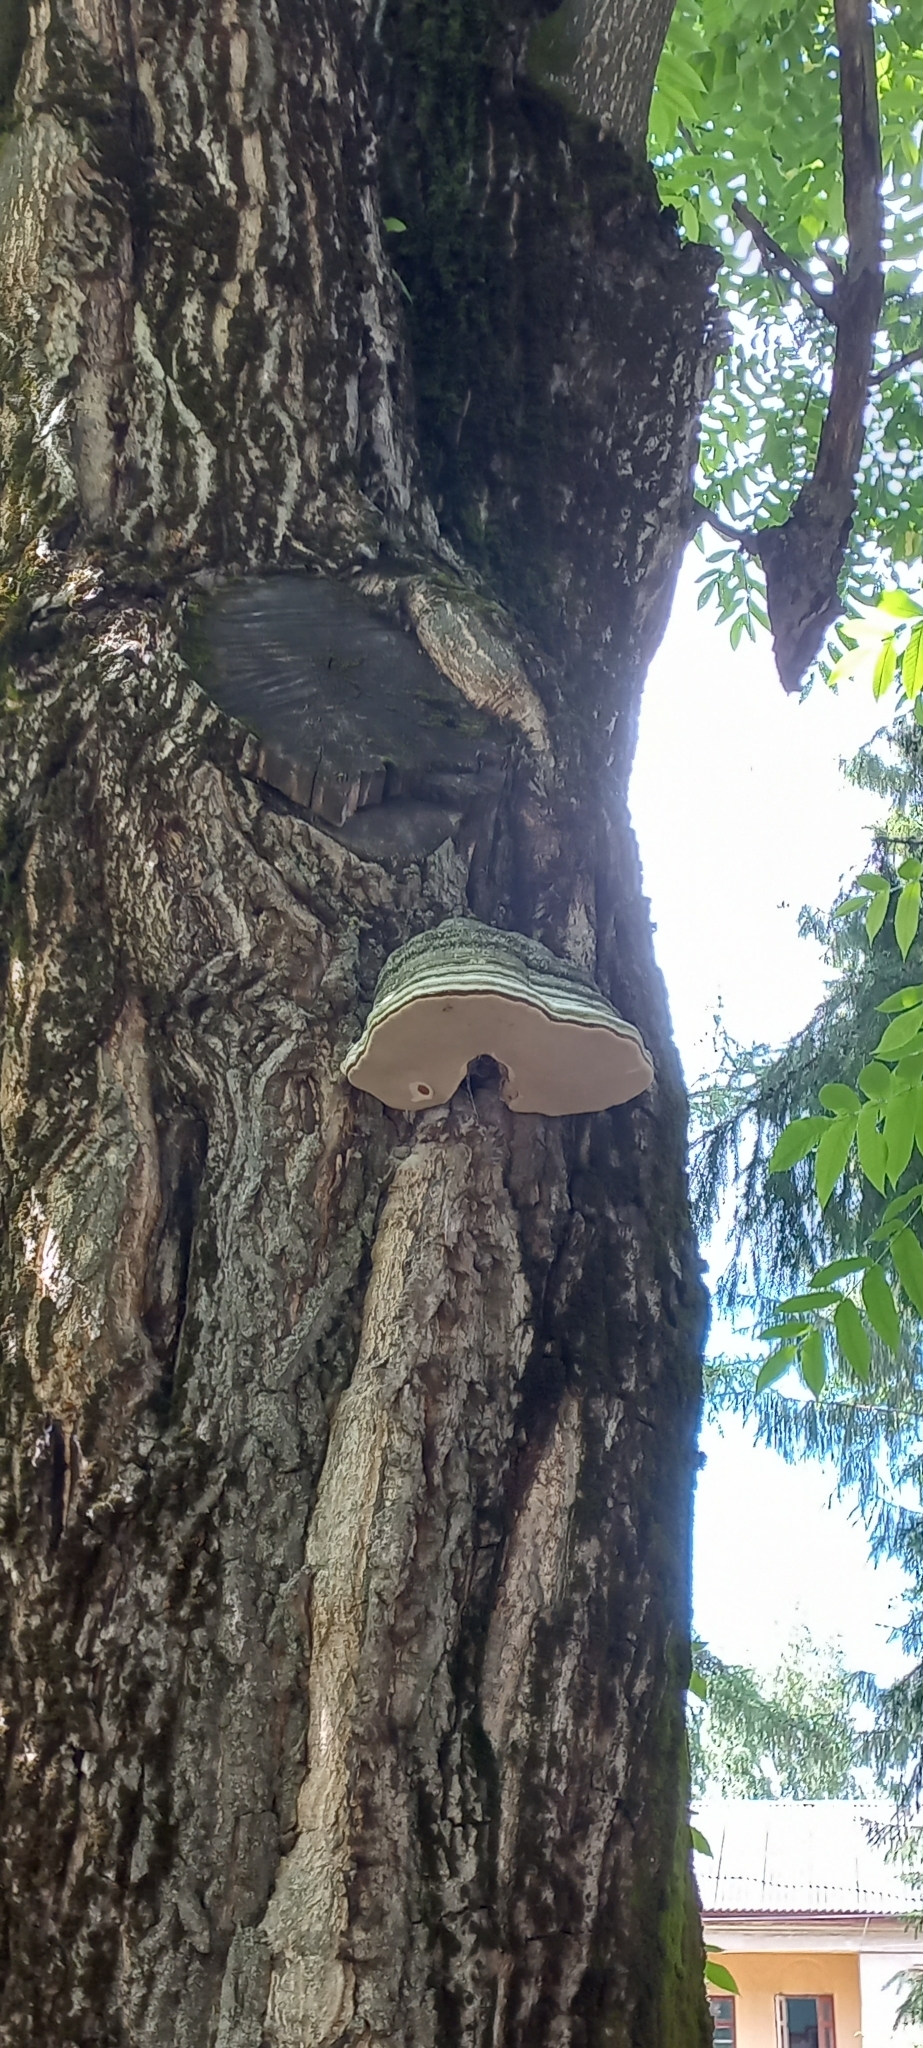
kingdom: Fungi
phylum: Basidiomycota
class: Agaricomycetes
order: Polyporales
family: Polyporaceae
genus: Fomes
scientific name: Fomes fomentarius
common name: Hoof fungus
